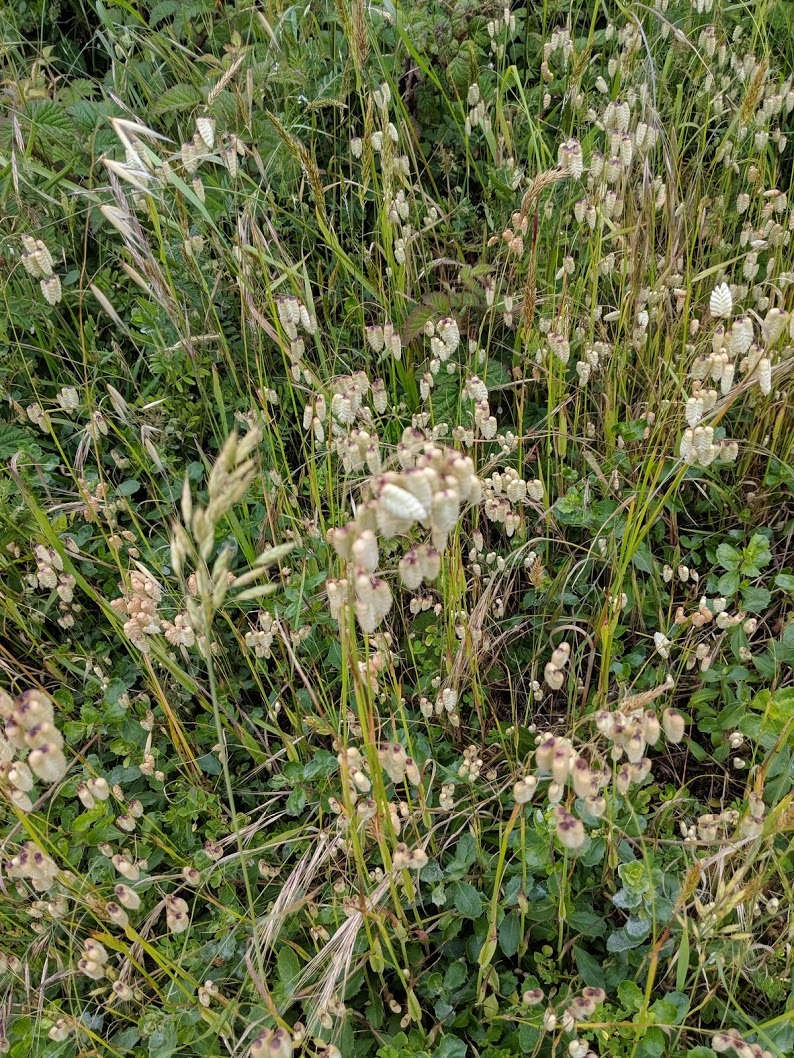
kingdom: Plantae
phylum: Tracheophyta
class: Liliopsida
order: Poales
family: Poaceae
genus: Briza
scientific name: Briza maxima
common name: Big quakinggrass
